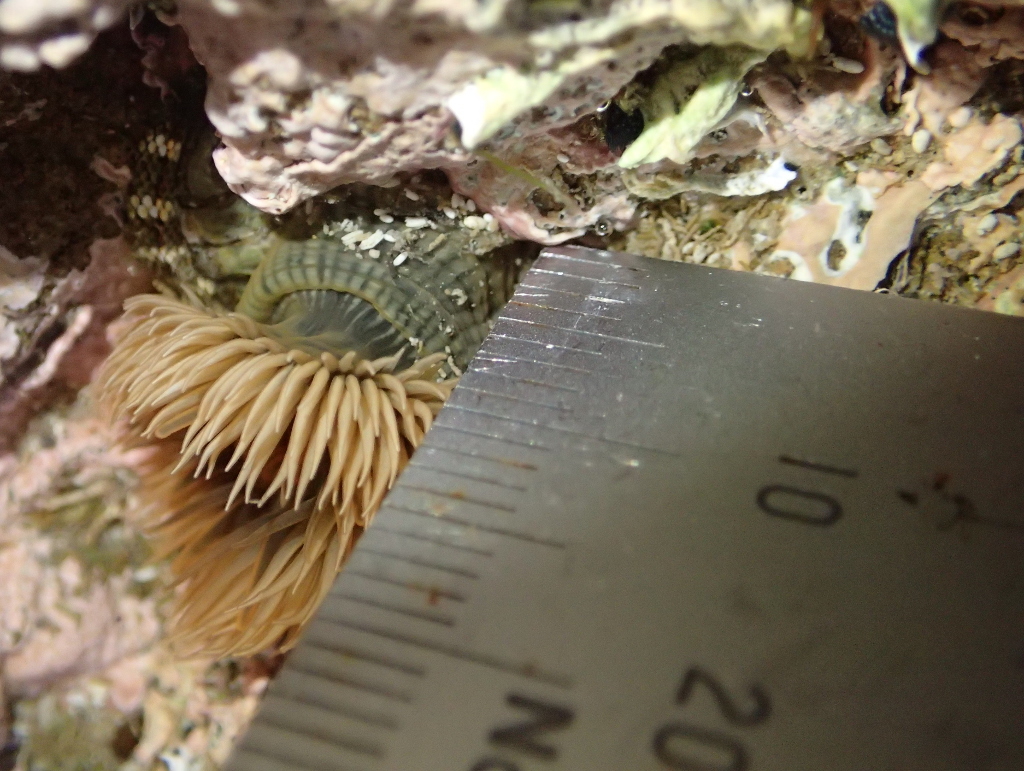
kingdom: Animalia
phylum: Cnidaria
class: Anthozoa
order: Actiniaria
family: Diadumenidae
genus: Diadumene
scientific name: Diadumene neozelanica
